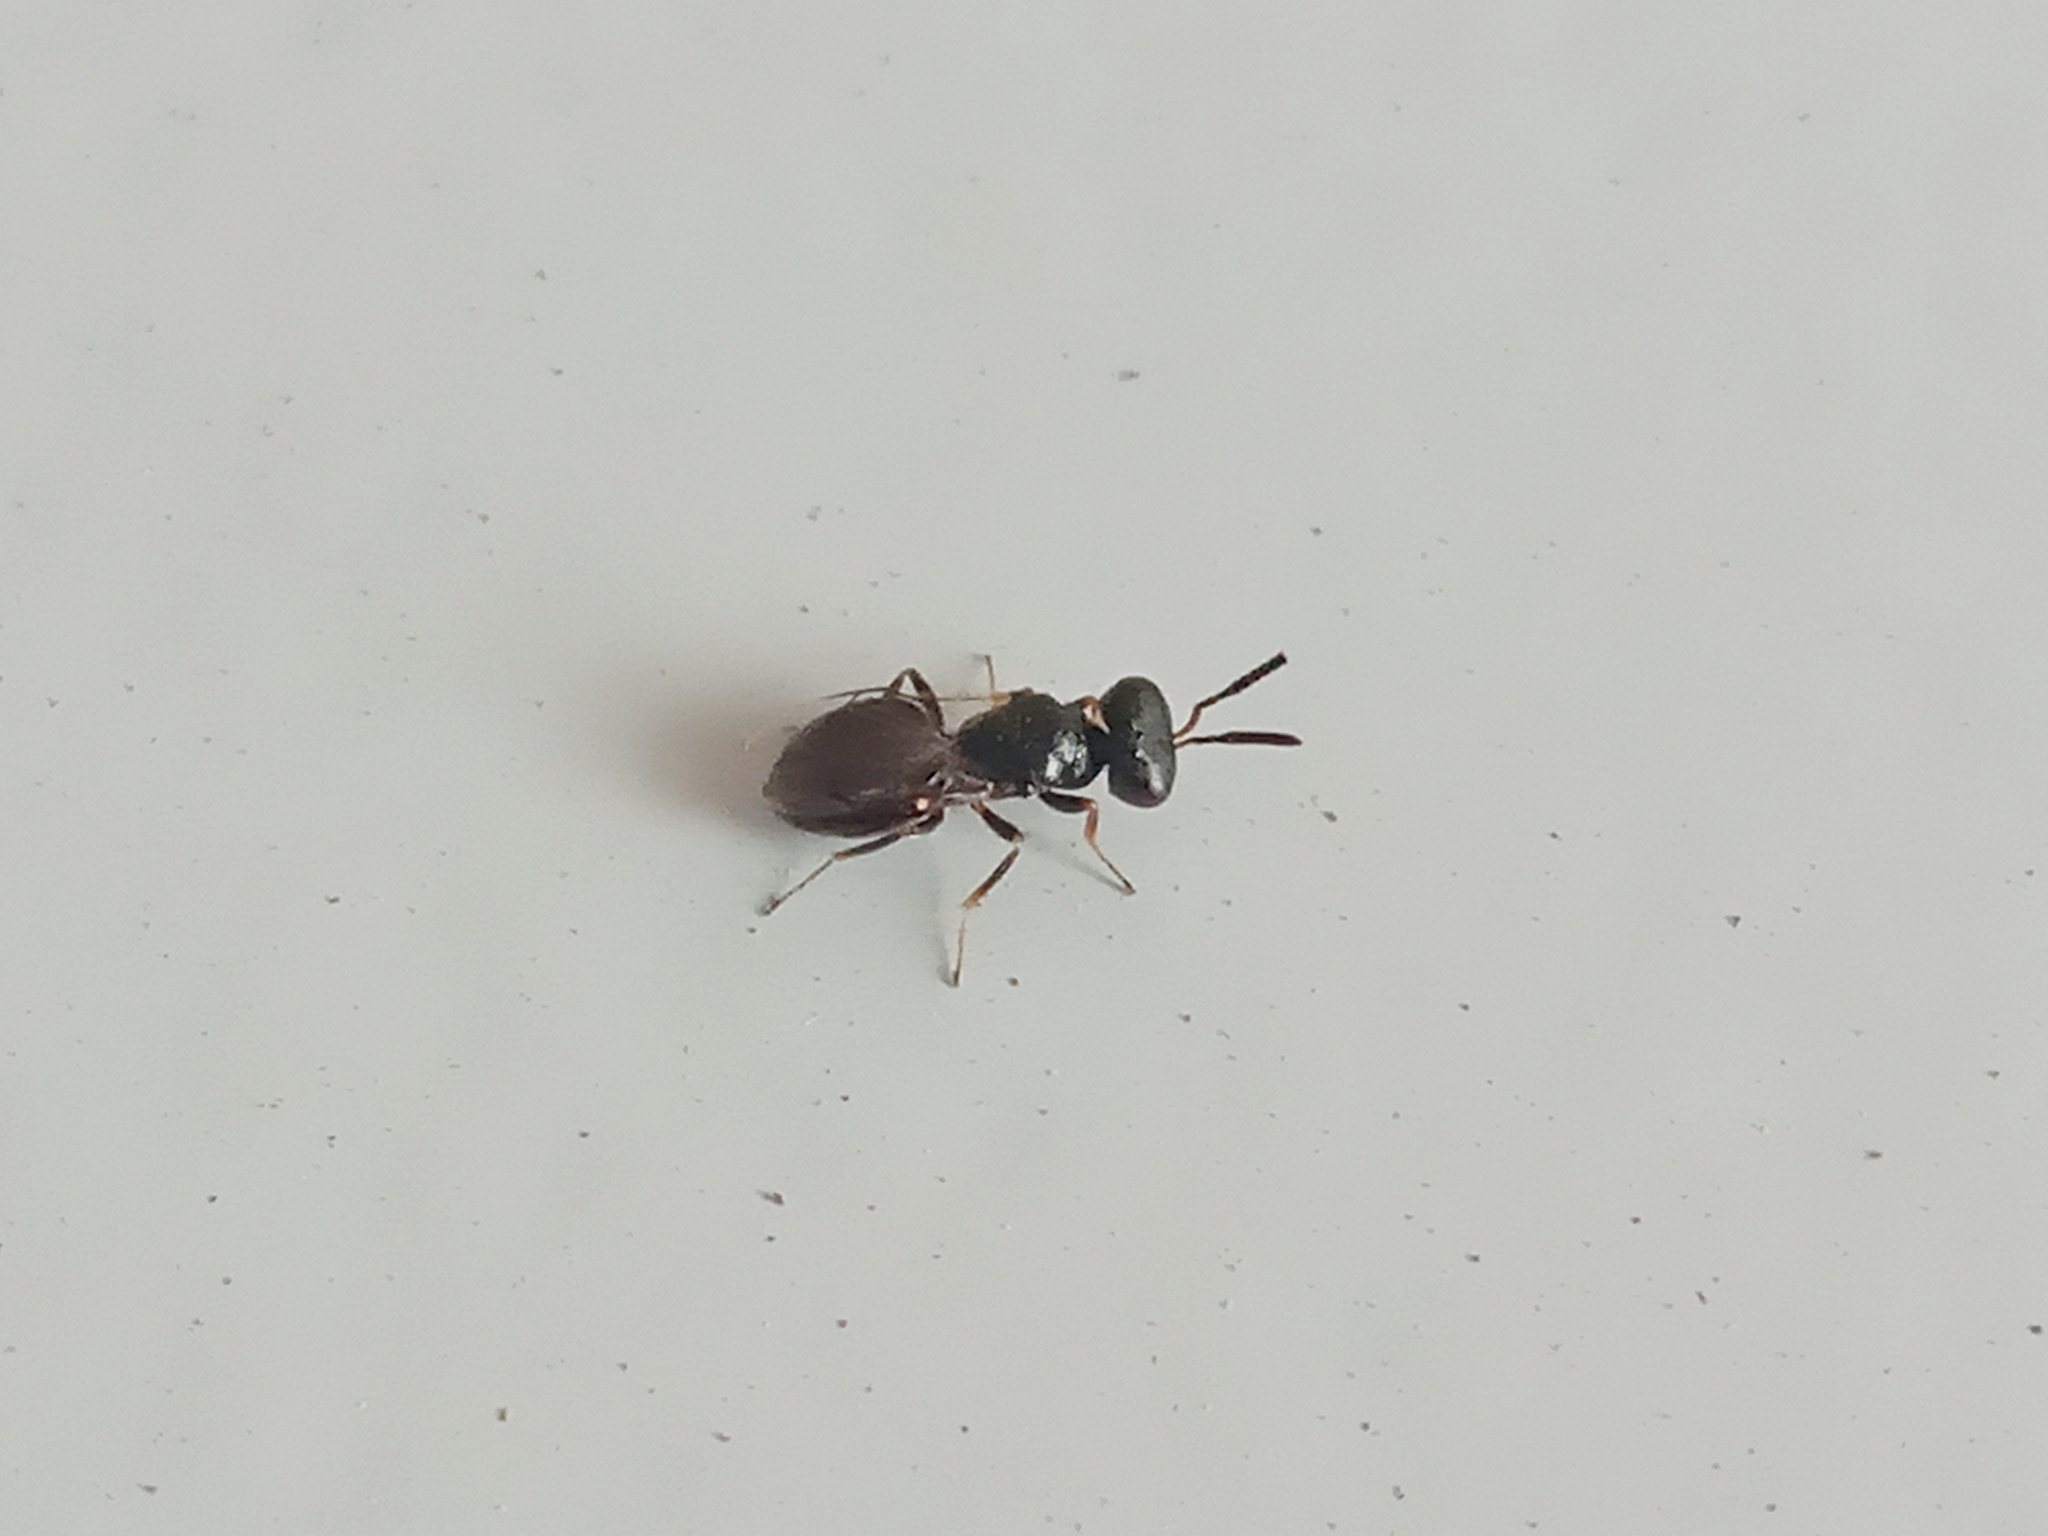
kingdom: Animalia
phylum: Arthropoda
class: Insecta
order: Hymenoptera
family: Pteromalini
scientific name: Pteromalini
